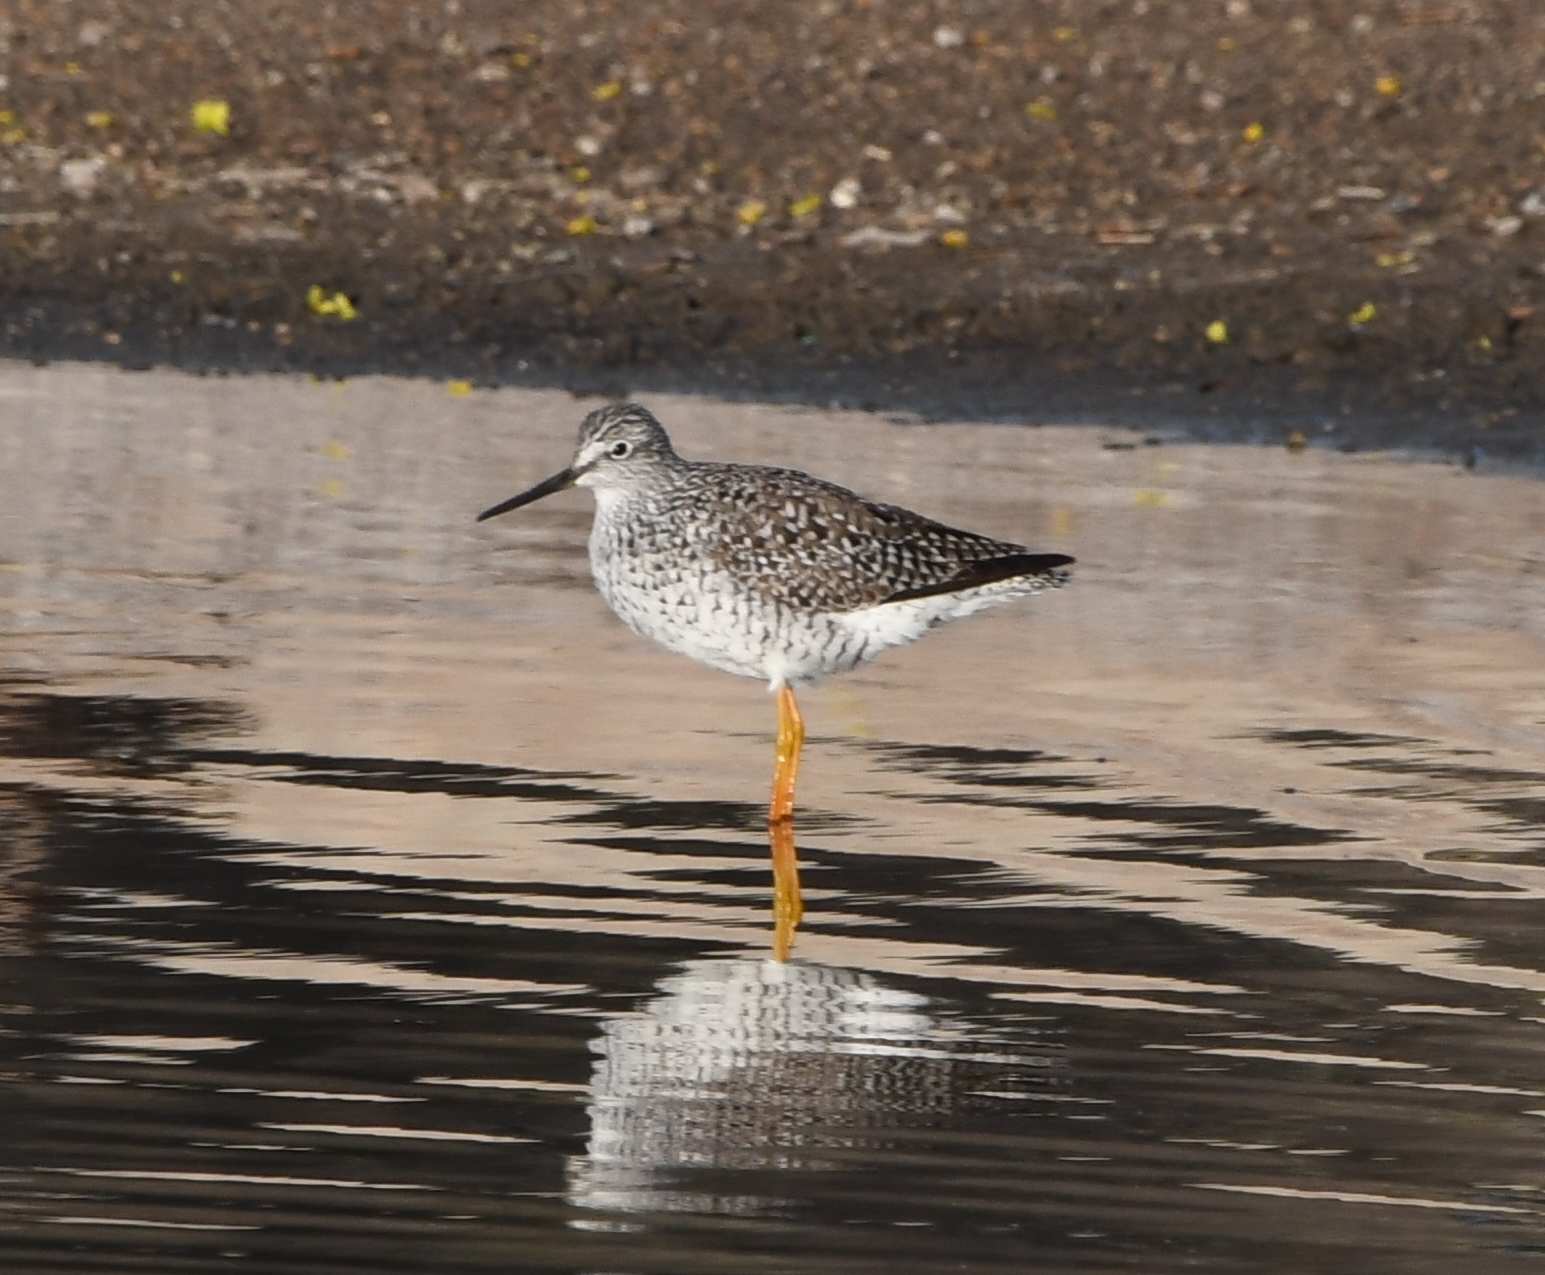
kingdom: Animalia
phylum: Chordata
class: Aves
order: Charadriiformes
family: Scolopacidae
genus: Tringa
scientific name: Tringa melanoleuca
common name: Greater yellowlegs
